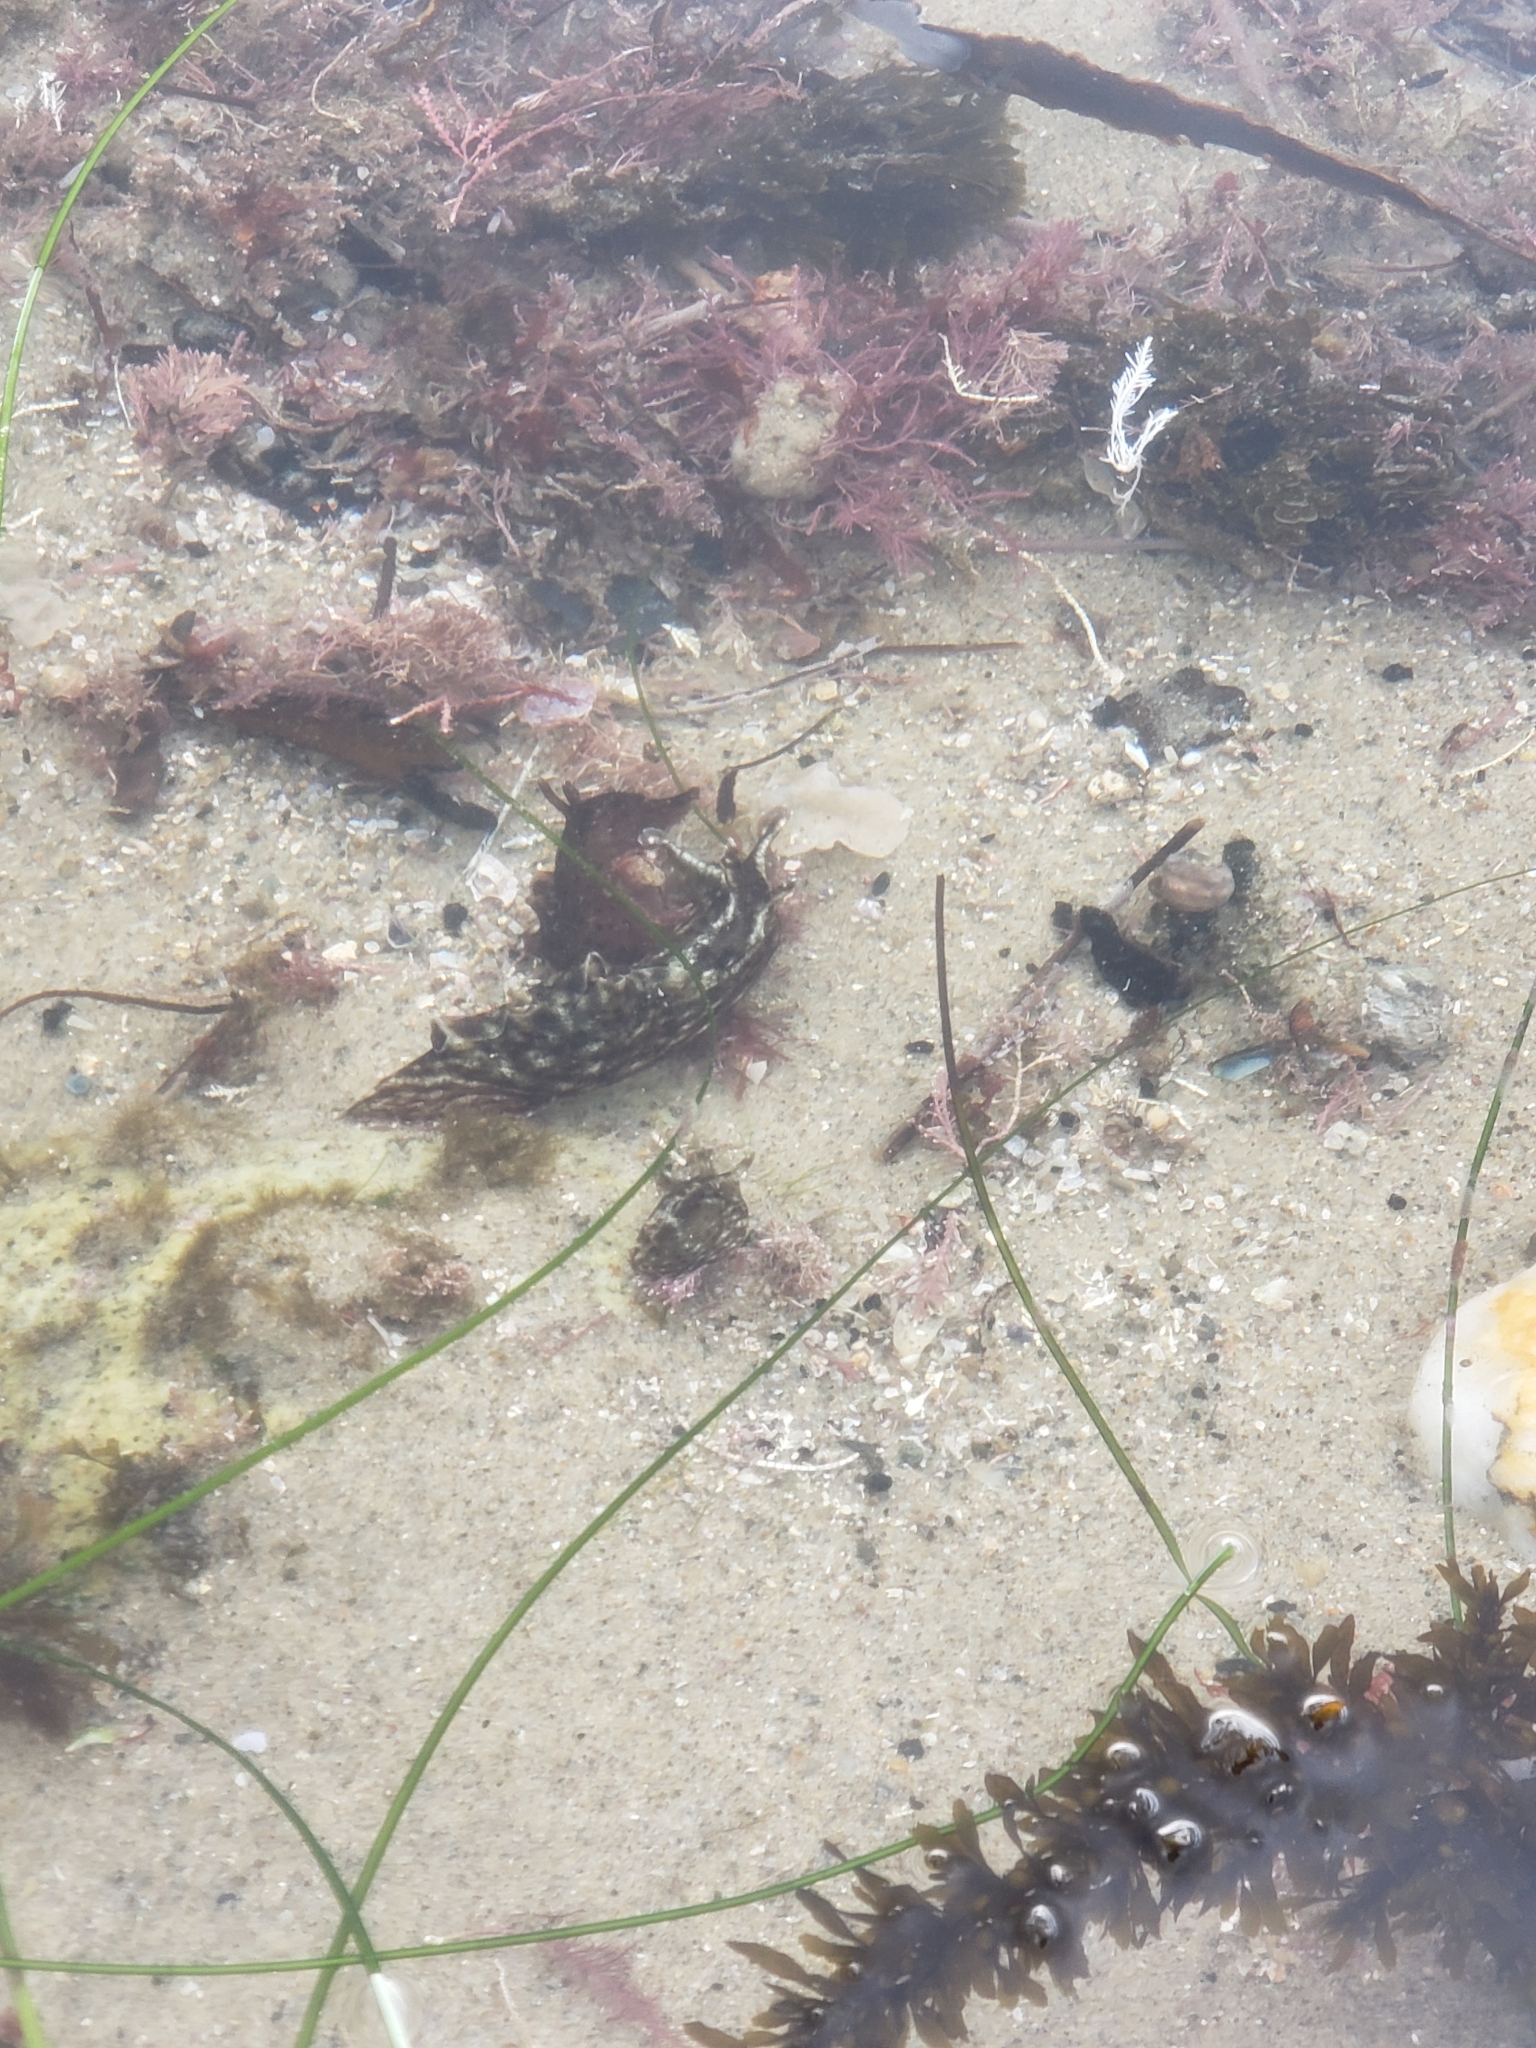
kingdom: Animalia
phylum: Mollusca
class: Gastropoda
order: Aplysiida
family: Aplysiidae
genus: Aplysia
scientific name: Aplysia californica
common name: California seahare
